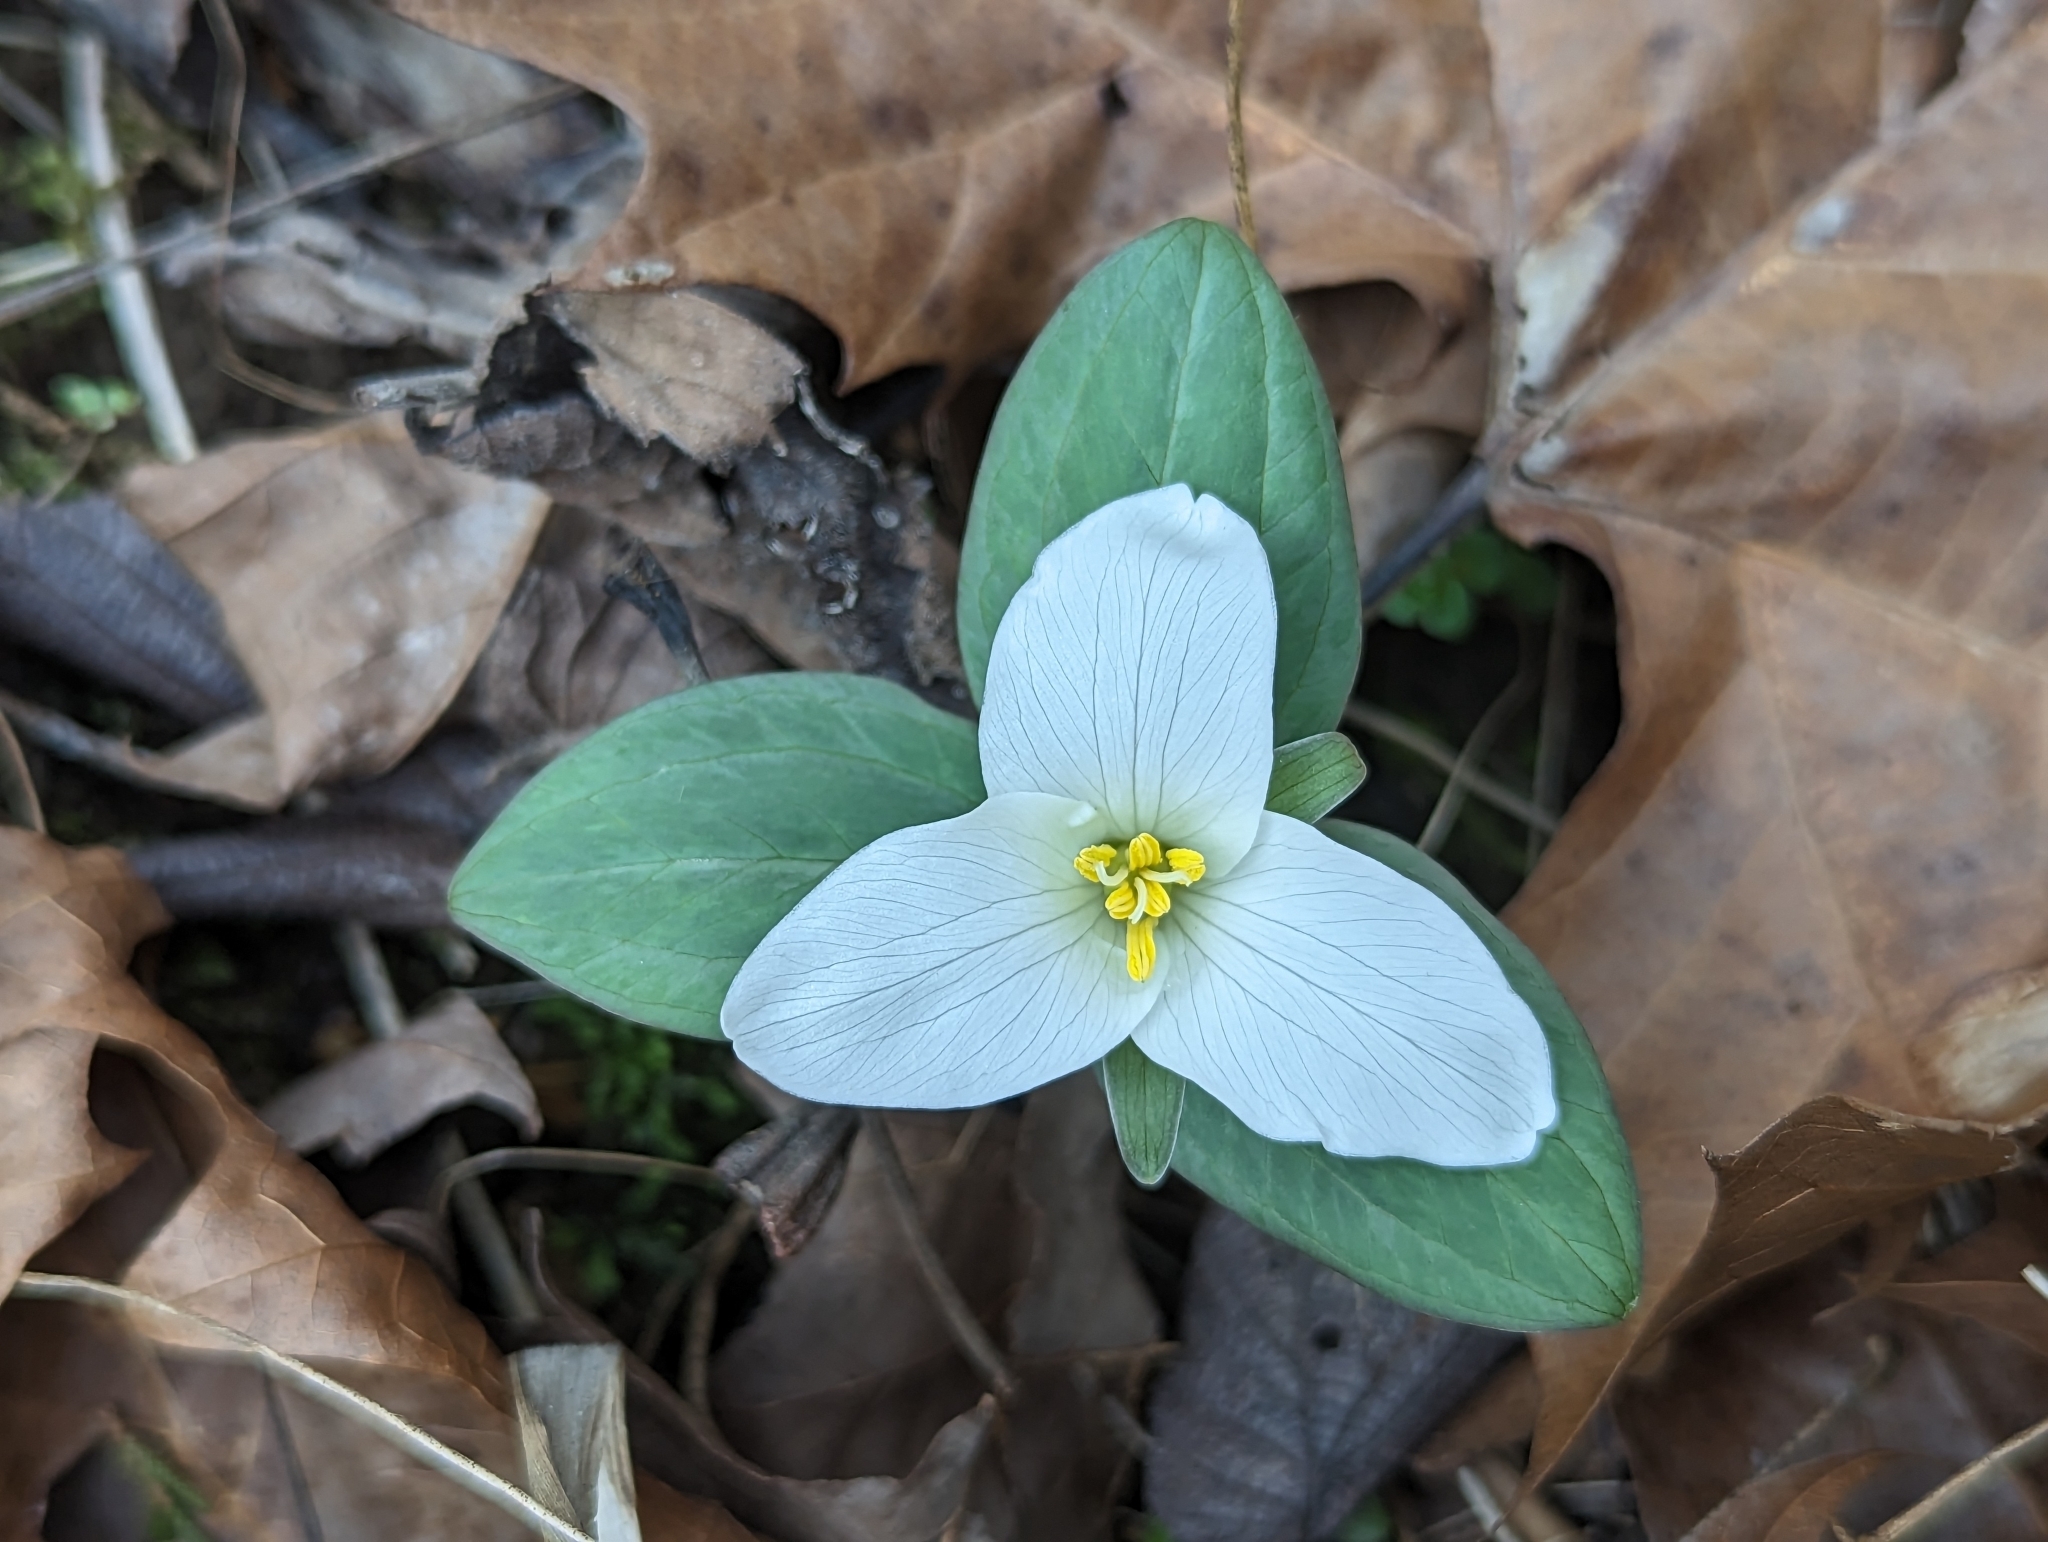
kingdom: Plantae
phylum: Tracheophyta
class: Liliopsida
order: Liliales
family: Melanthiaceae
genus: Trillium
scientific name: Trillium nivale
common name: Dwarf white trillium
